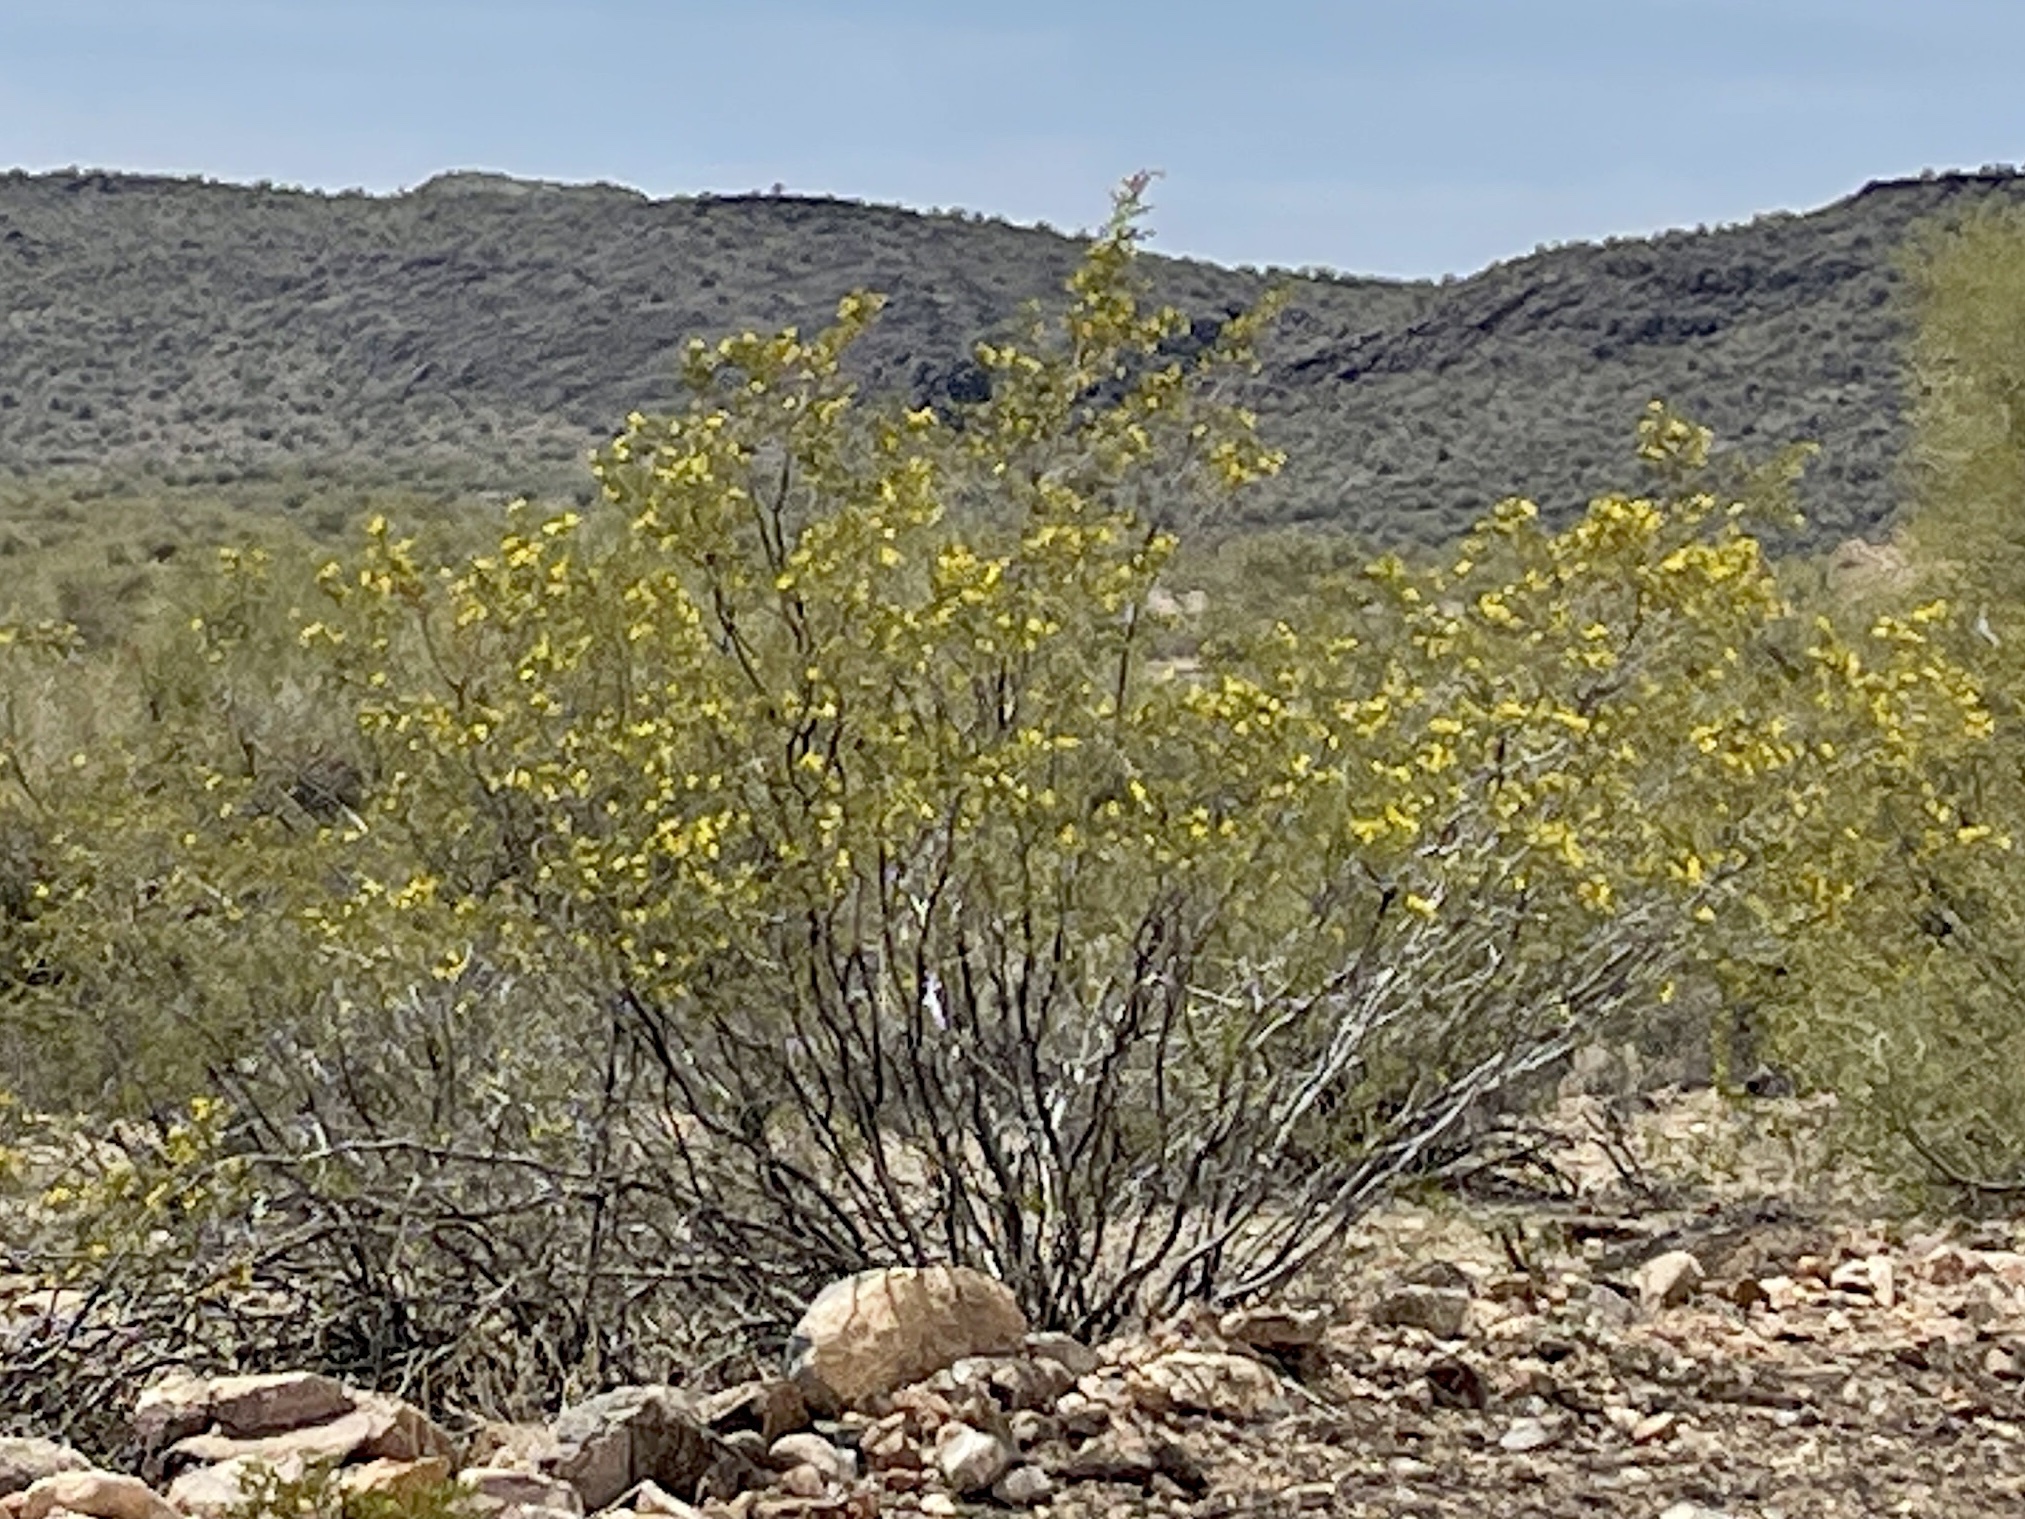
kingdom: Plantae
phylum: Tracheophyta
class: Magnoliopsida
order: Zygophyllales
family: Zygophyllaceae
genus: Larrea
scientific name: Larrea tridentata
